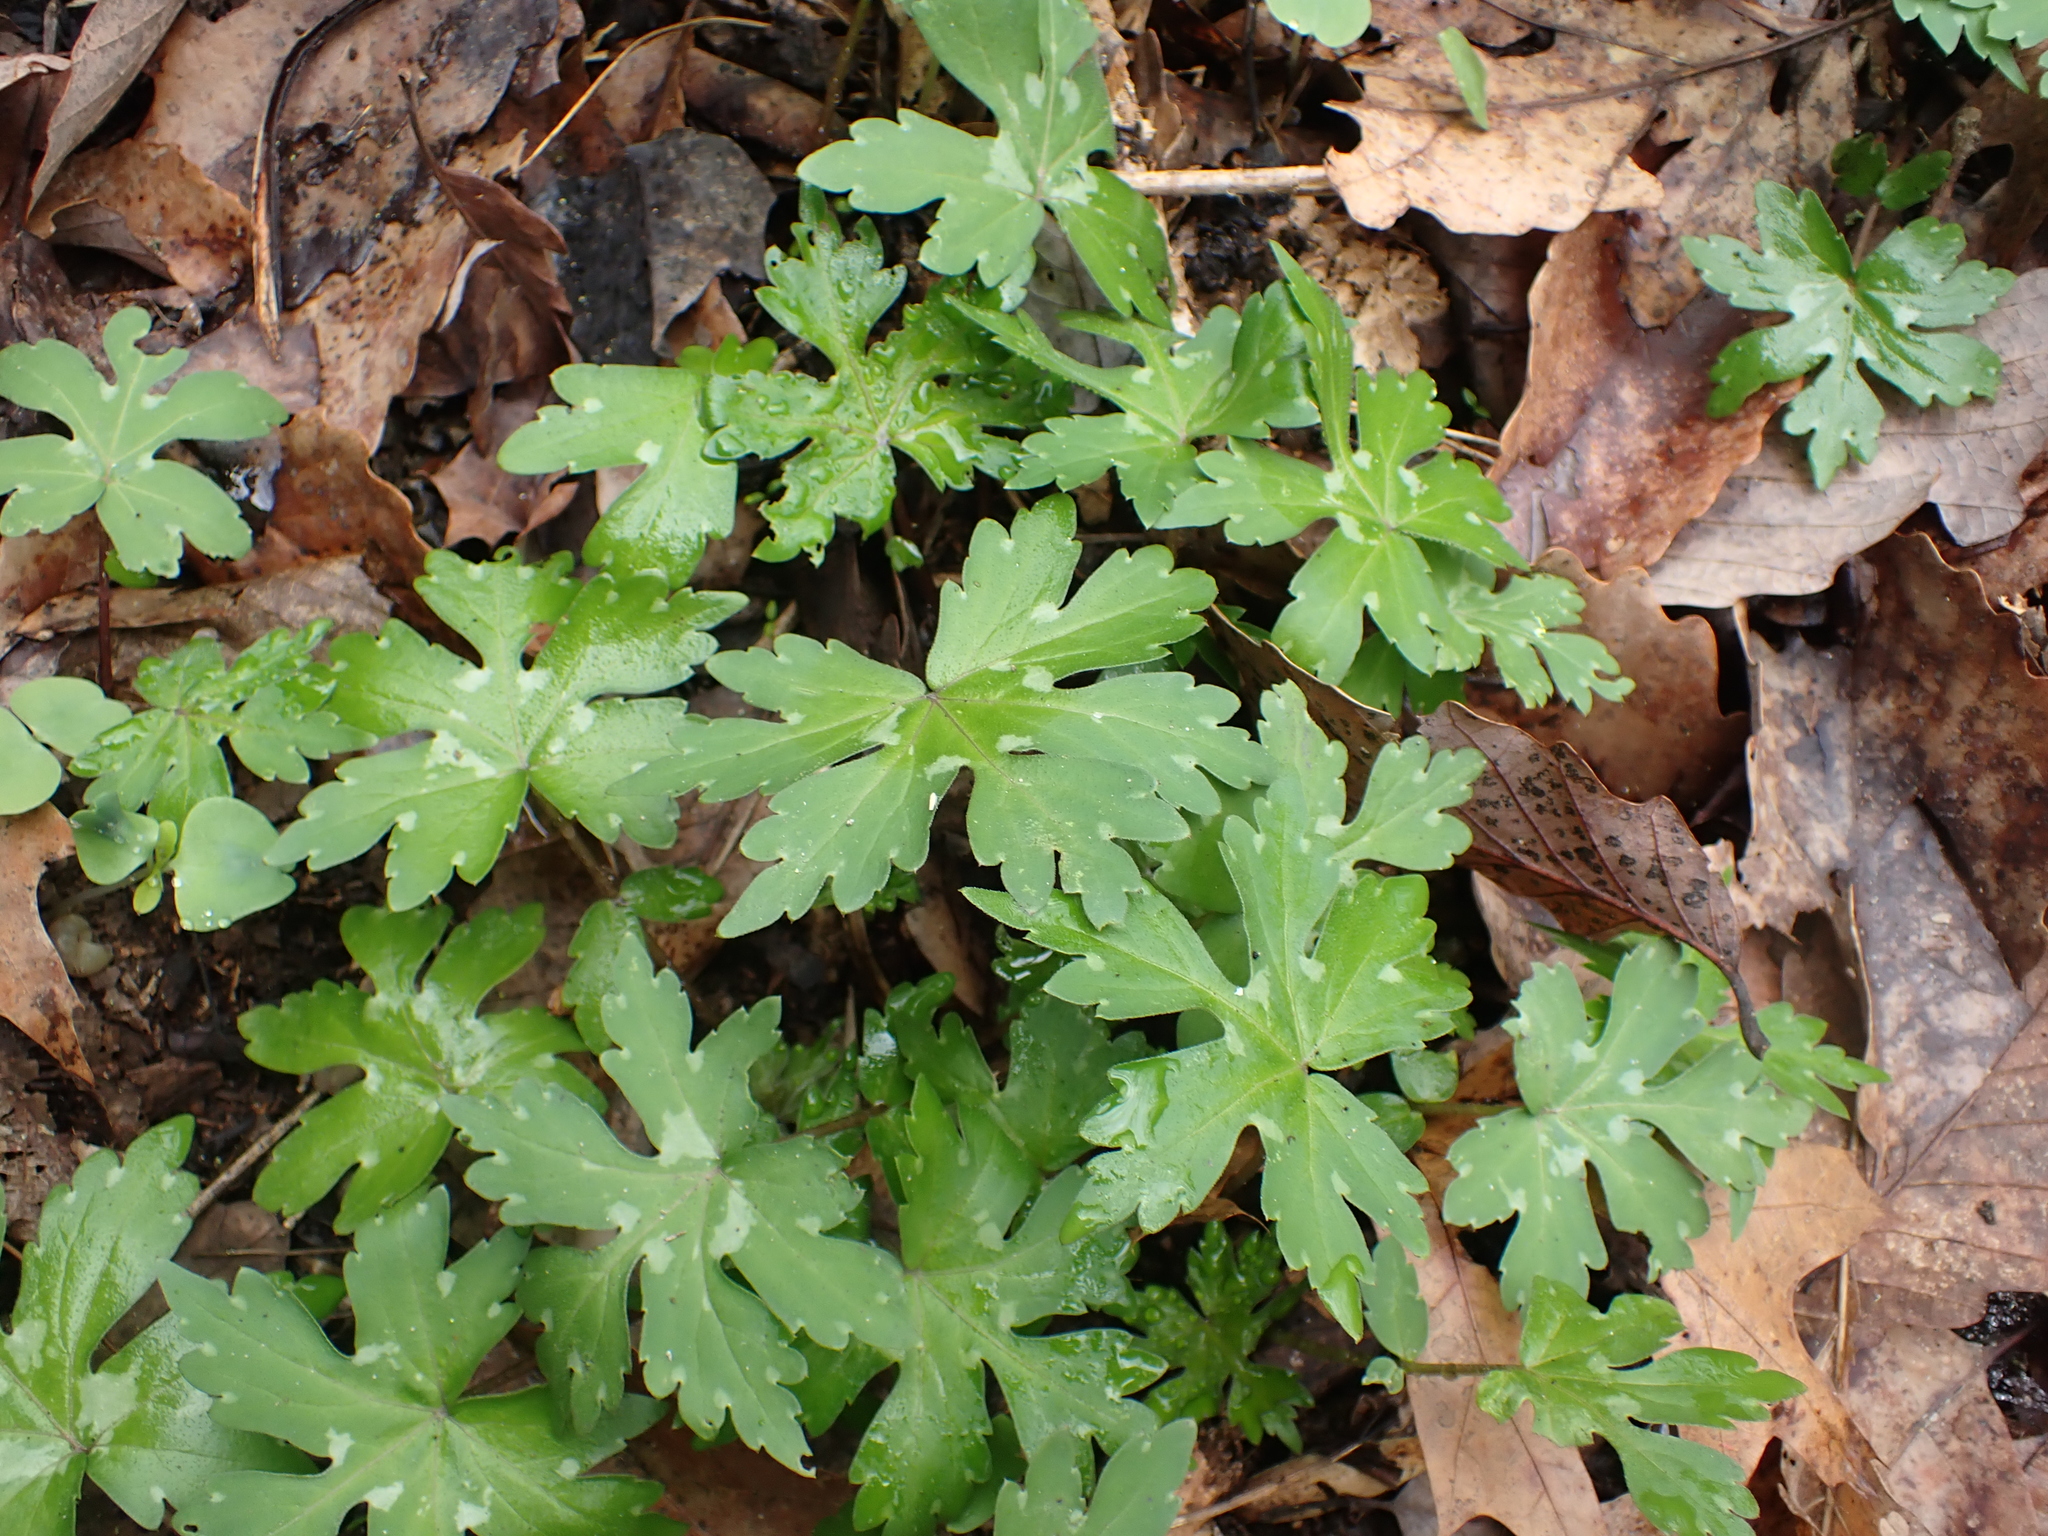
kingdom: Plantae
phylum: Tracheophyta
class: Magnoliopsida
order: Boraginales
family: Hydrophyllaceae
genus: Hydrophyllum
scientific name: Hydrophyllum canadense
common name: Canada waterleaf
